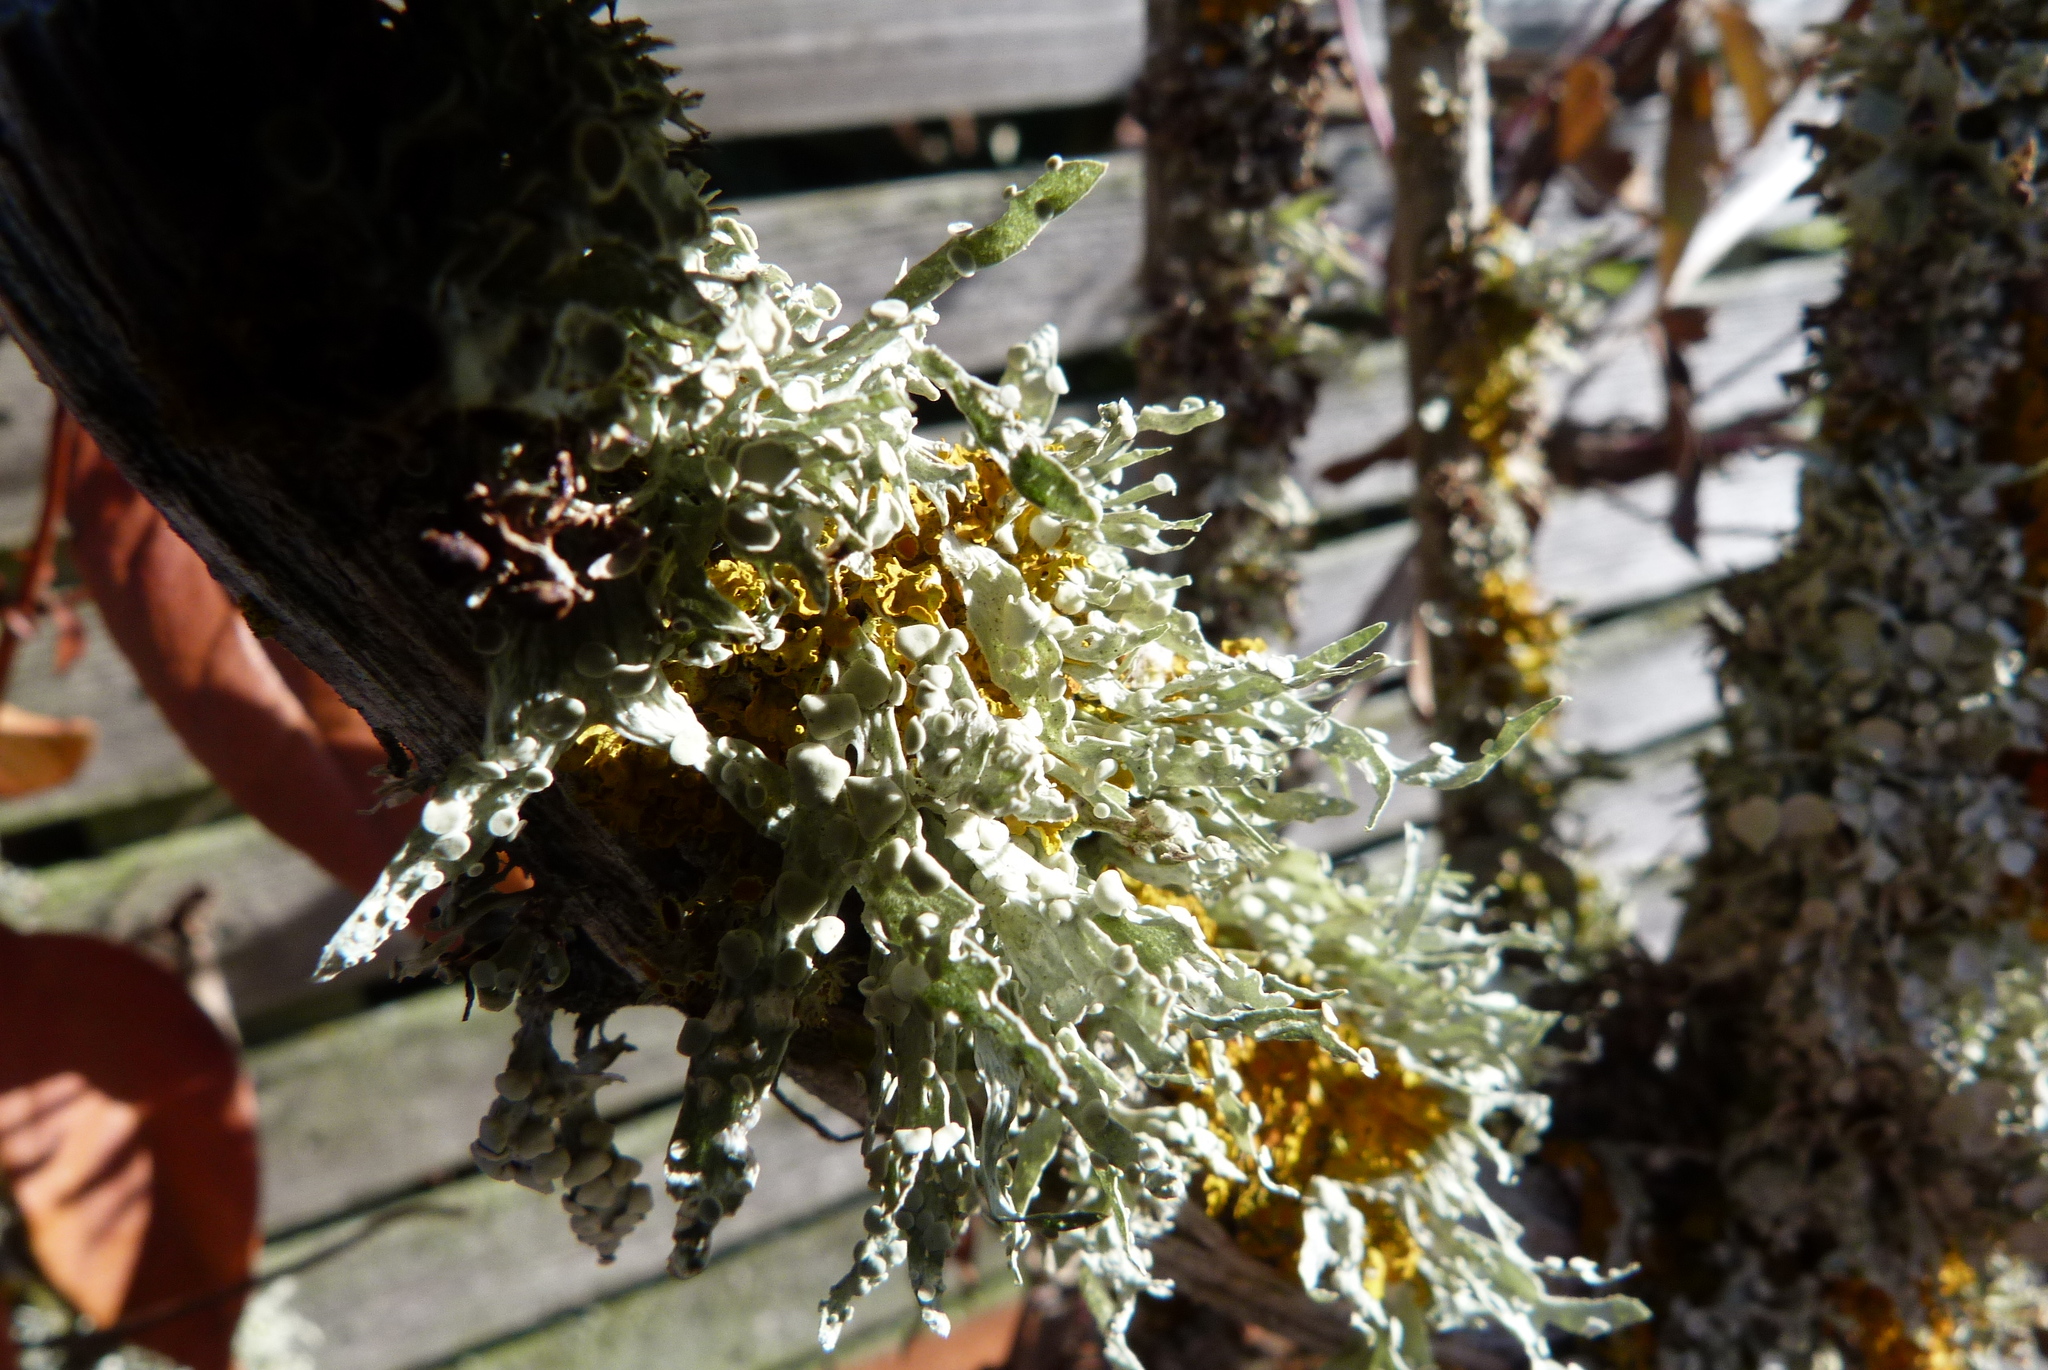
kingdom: Fungi
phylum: Ascomycota
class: Lecanoromycetes
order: Lecanorales
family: Ramalinaceae
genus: Ramalina
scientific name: Ramalina celastri
